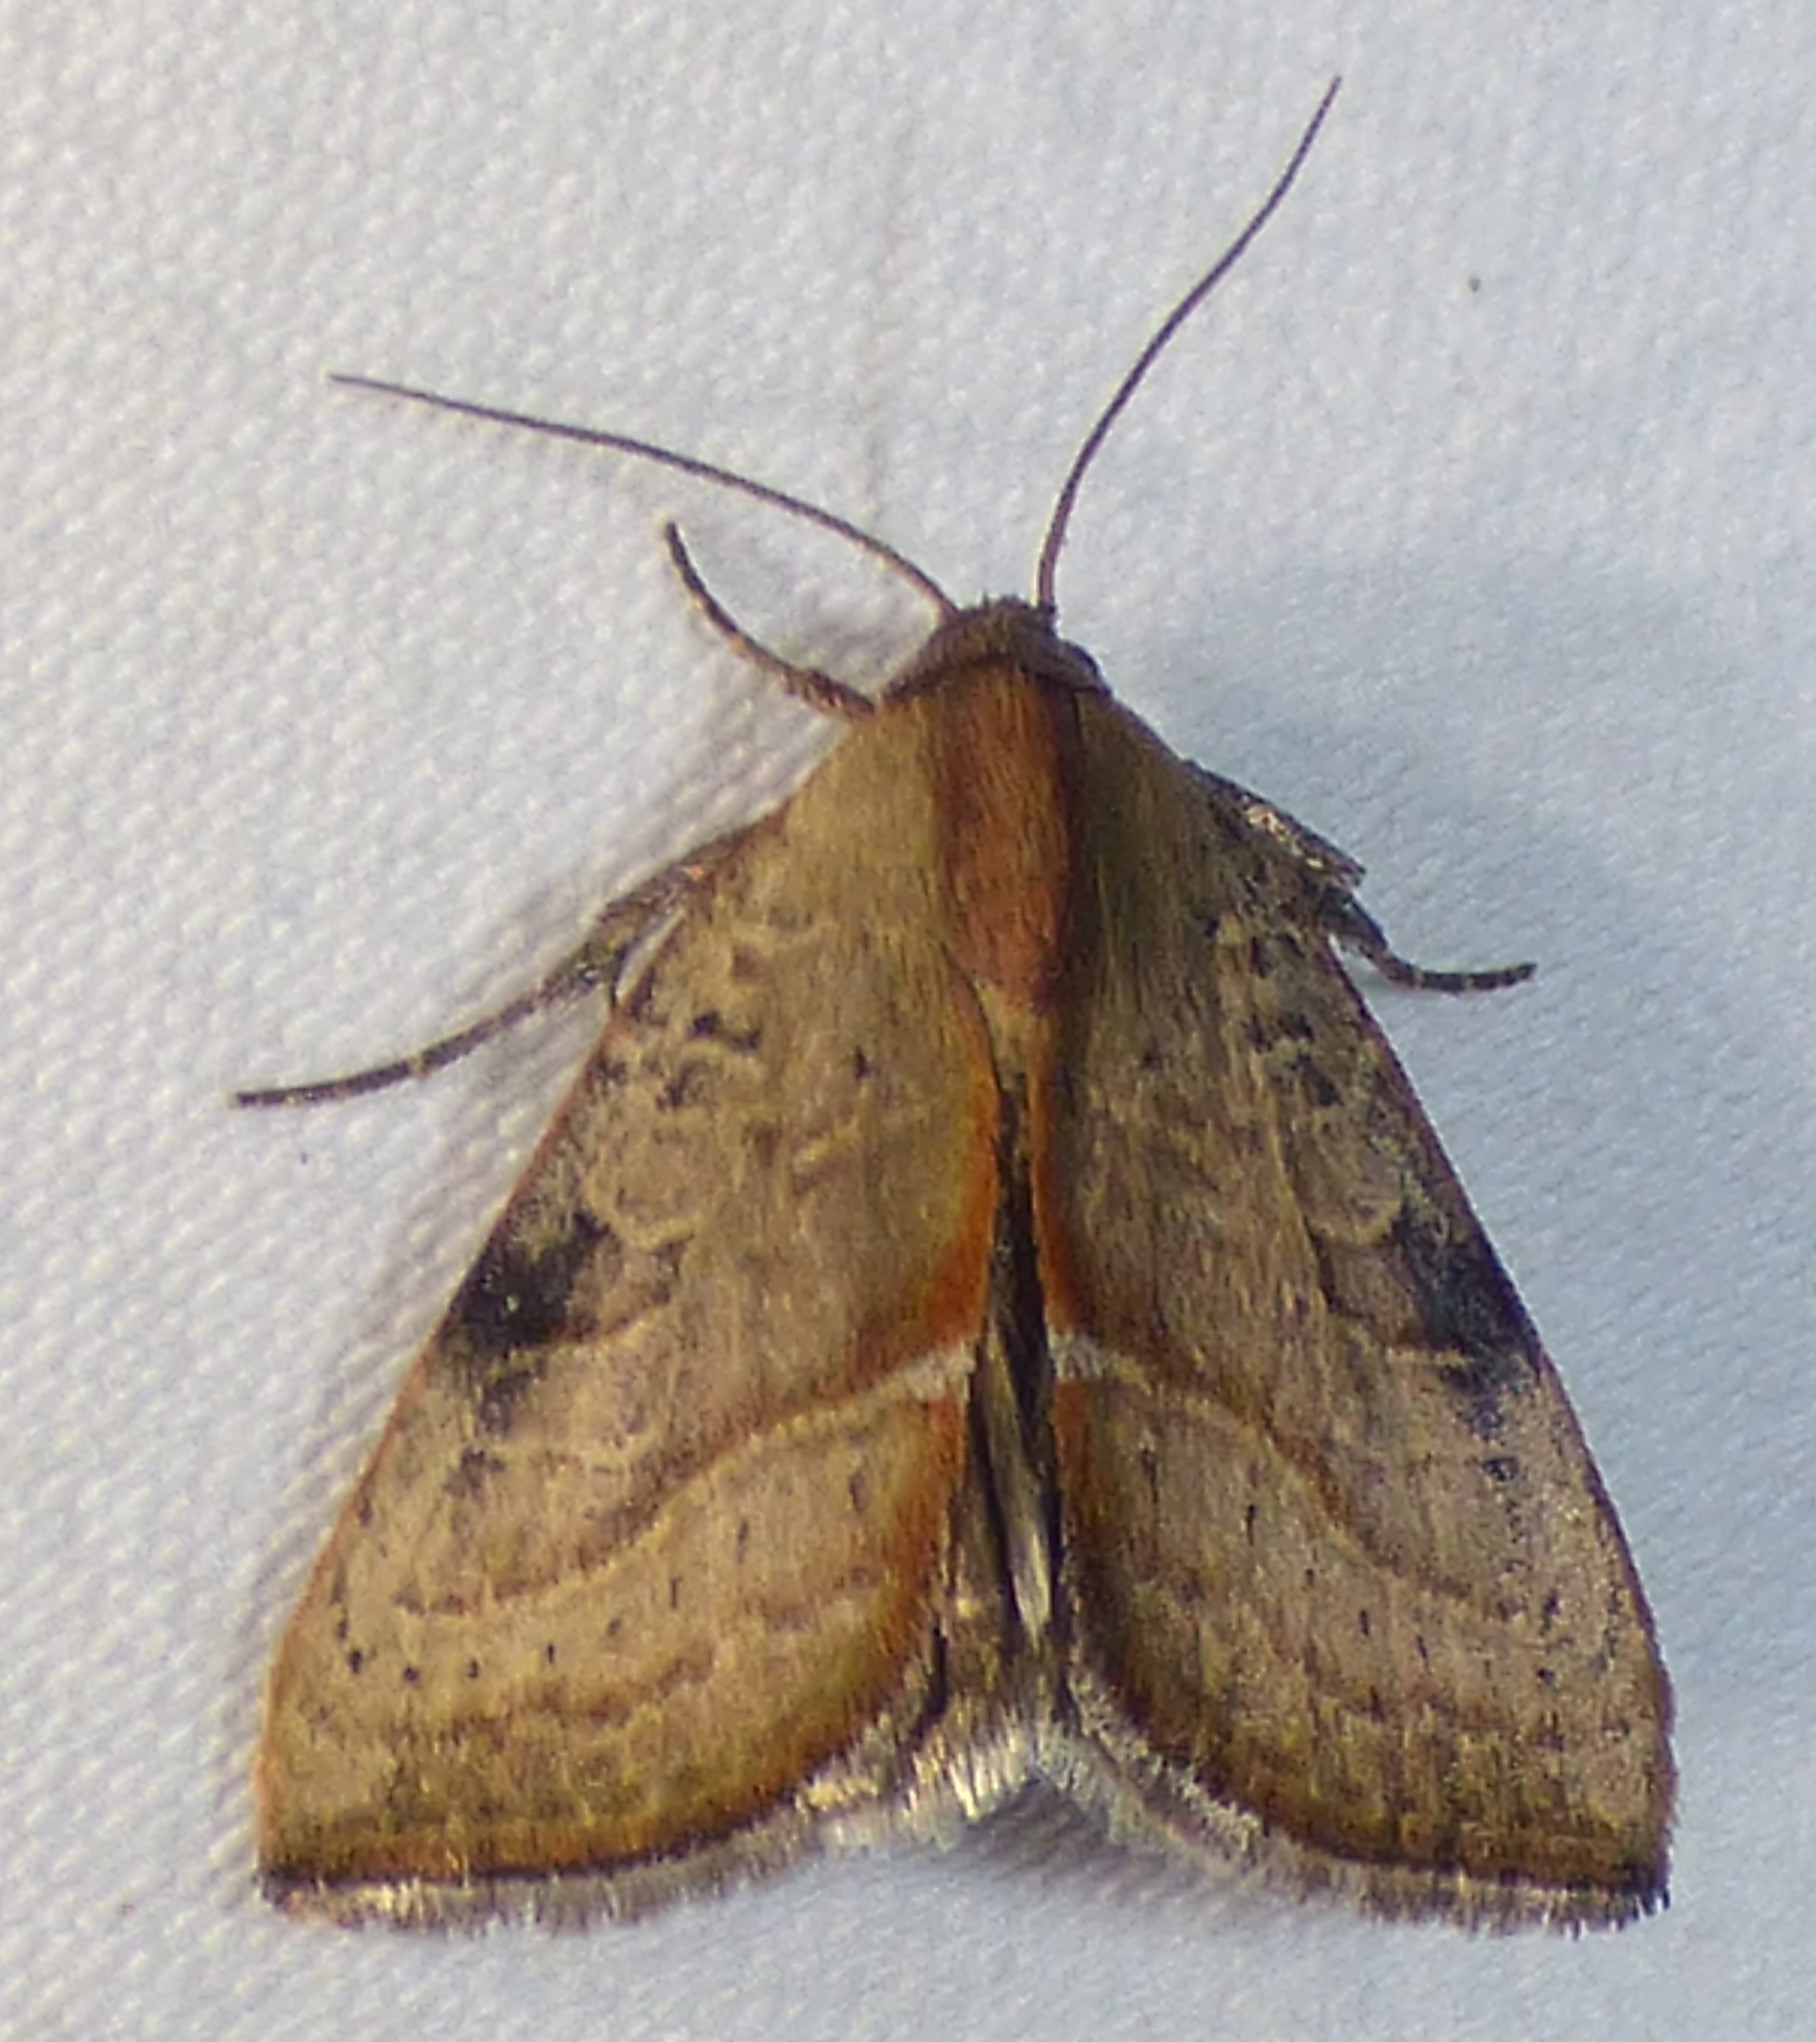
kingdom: Animalia
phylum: Arthropoda
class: Insecta
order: Lepidoptera
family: Noctuidae
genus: Galgula
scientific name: Galgula partita
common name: Wedgeling
